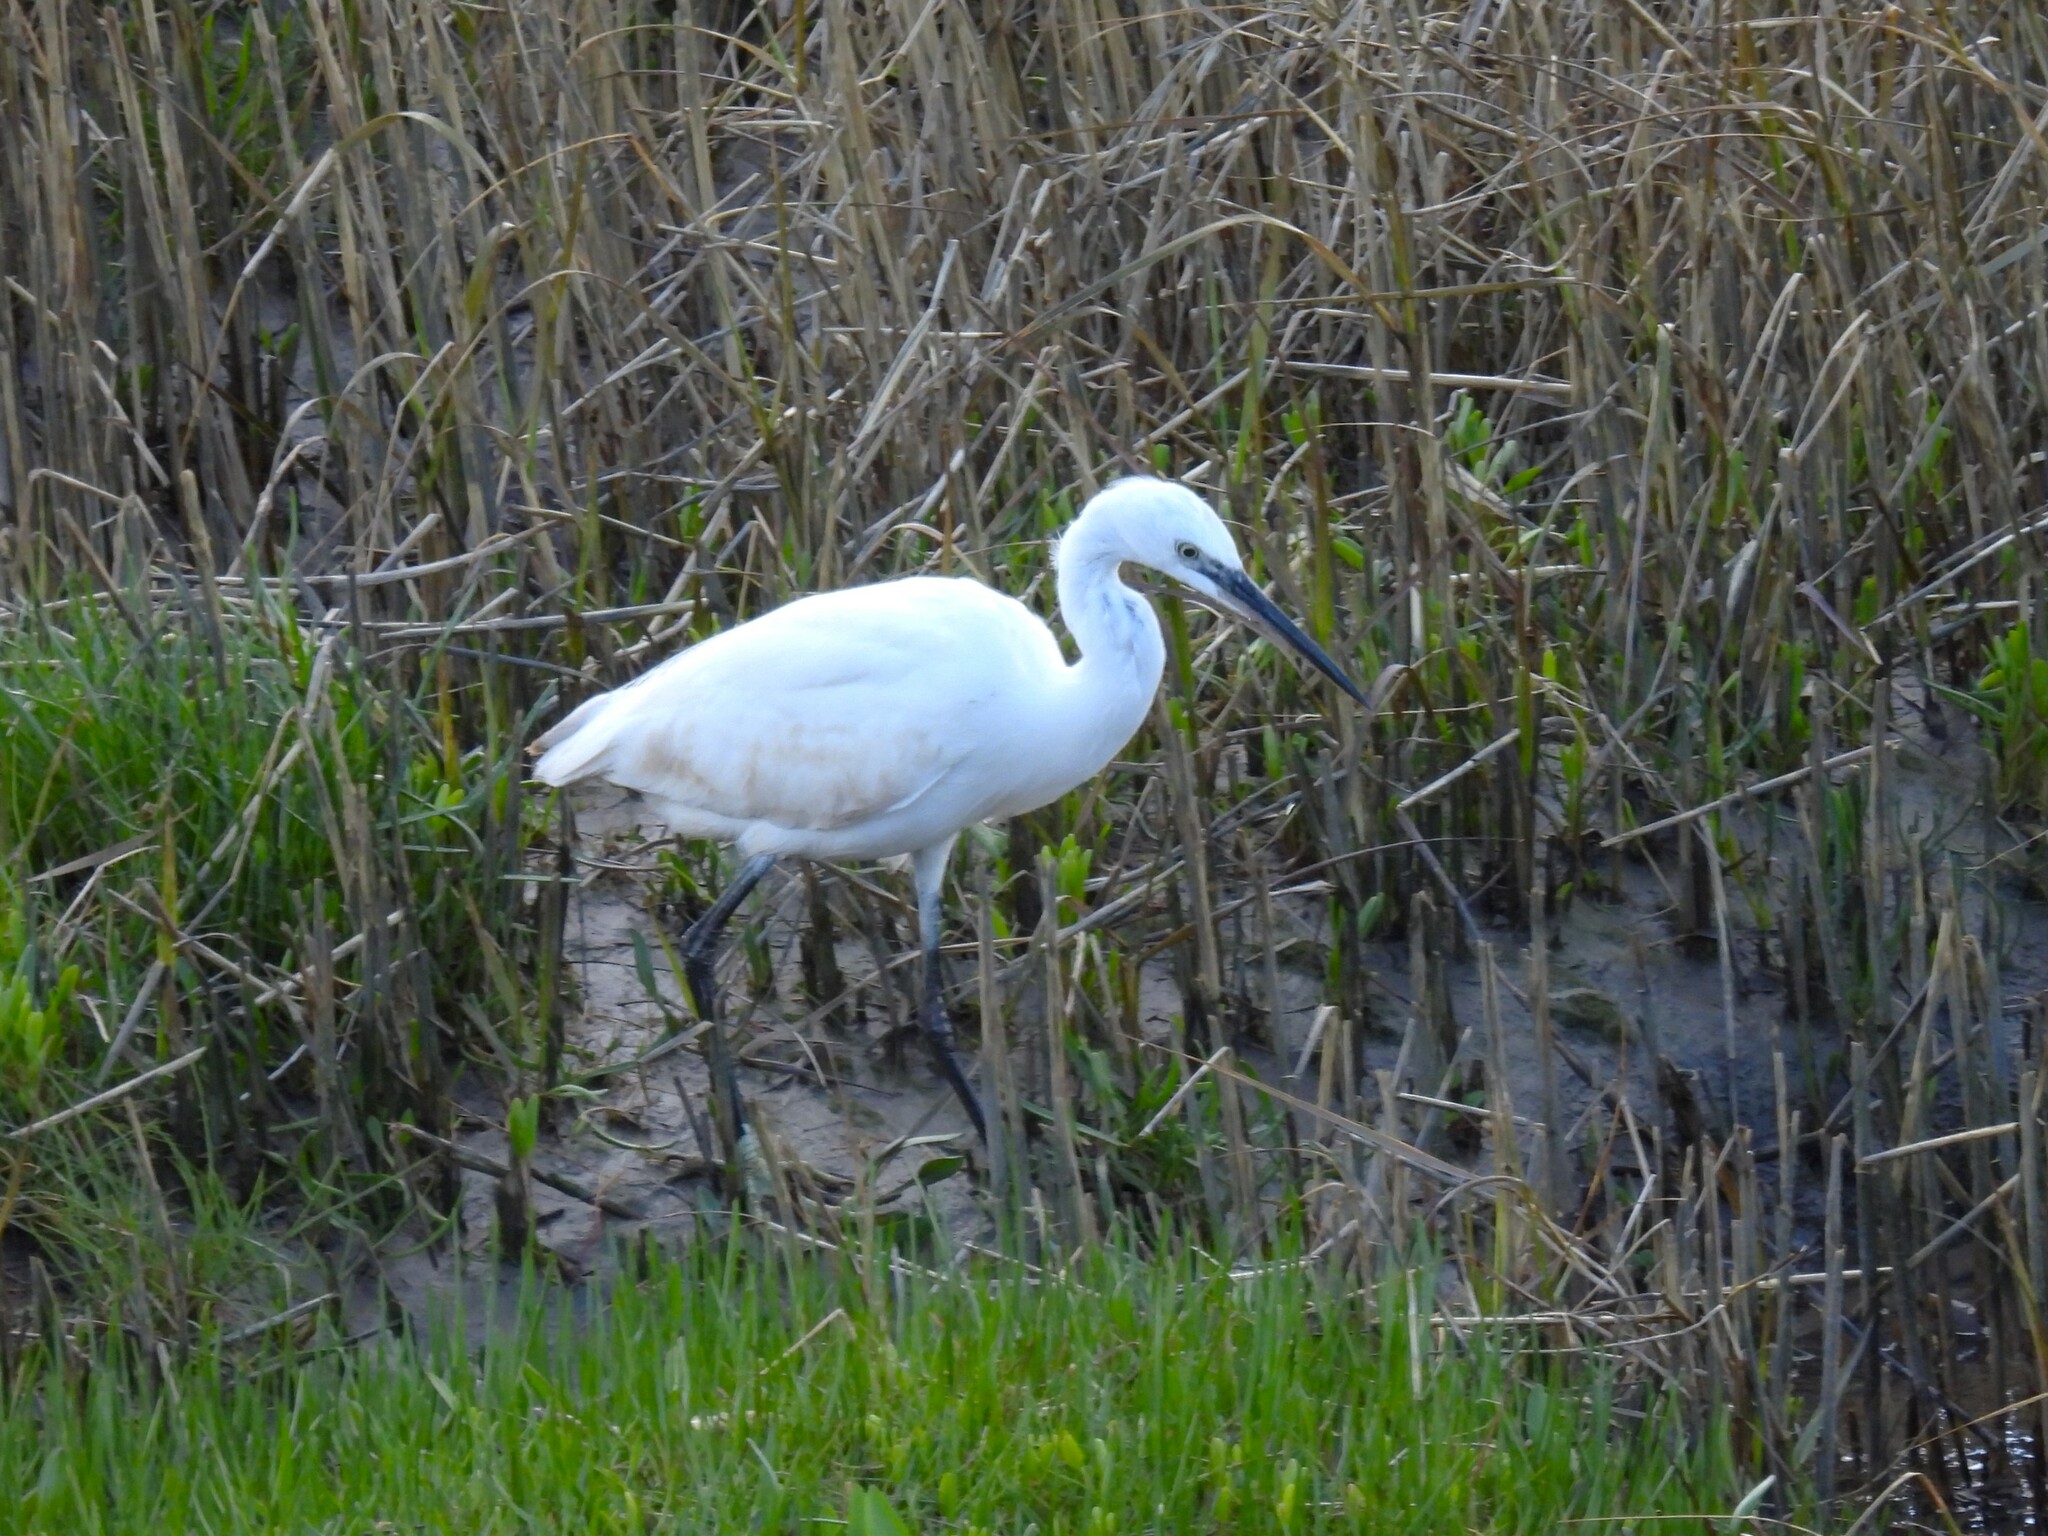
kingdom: Animalia
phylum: Chordata
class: Aves
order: Pelecaniformes
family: Ardeidae
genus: Egretta
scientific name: Egretta garzetta
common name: Little egret
